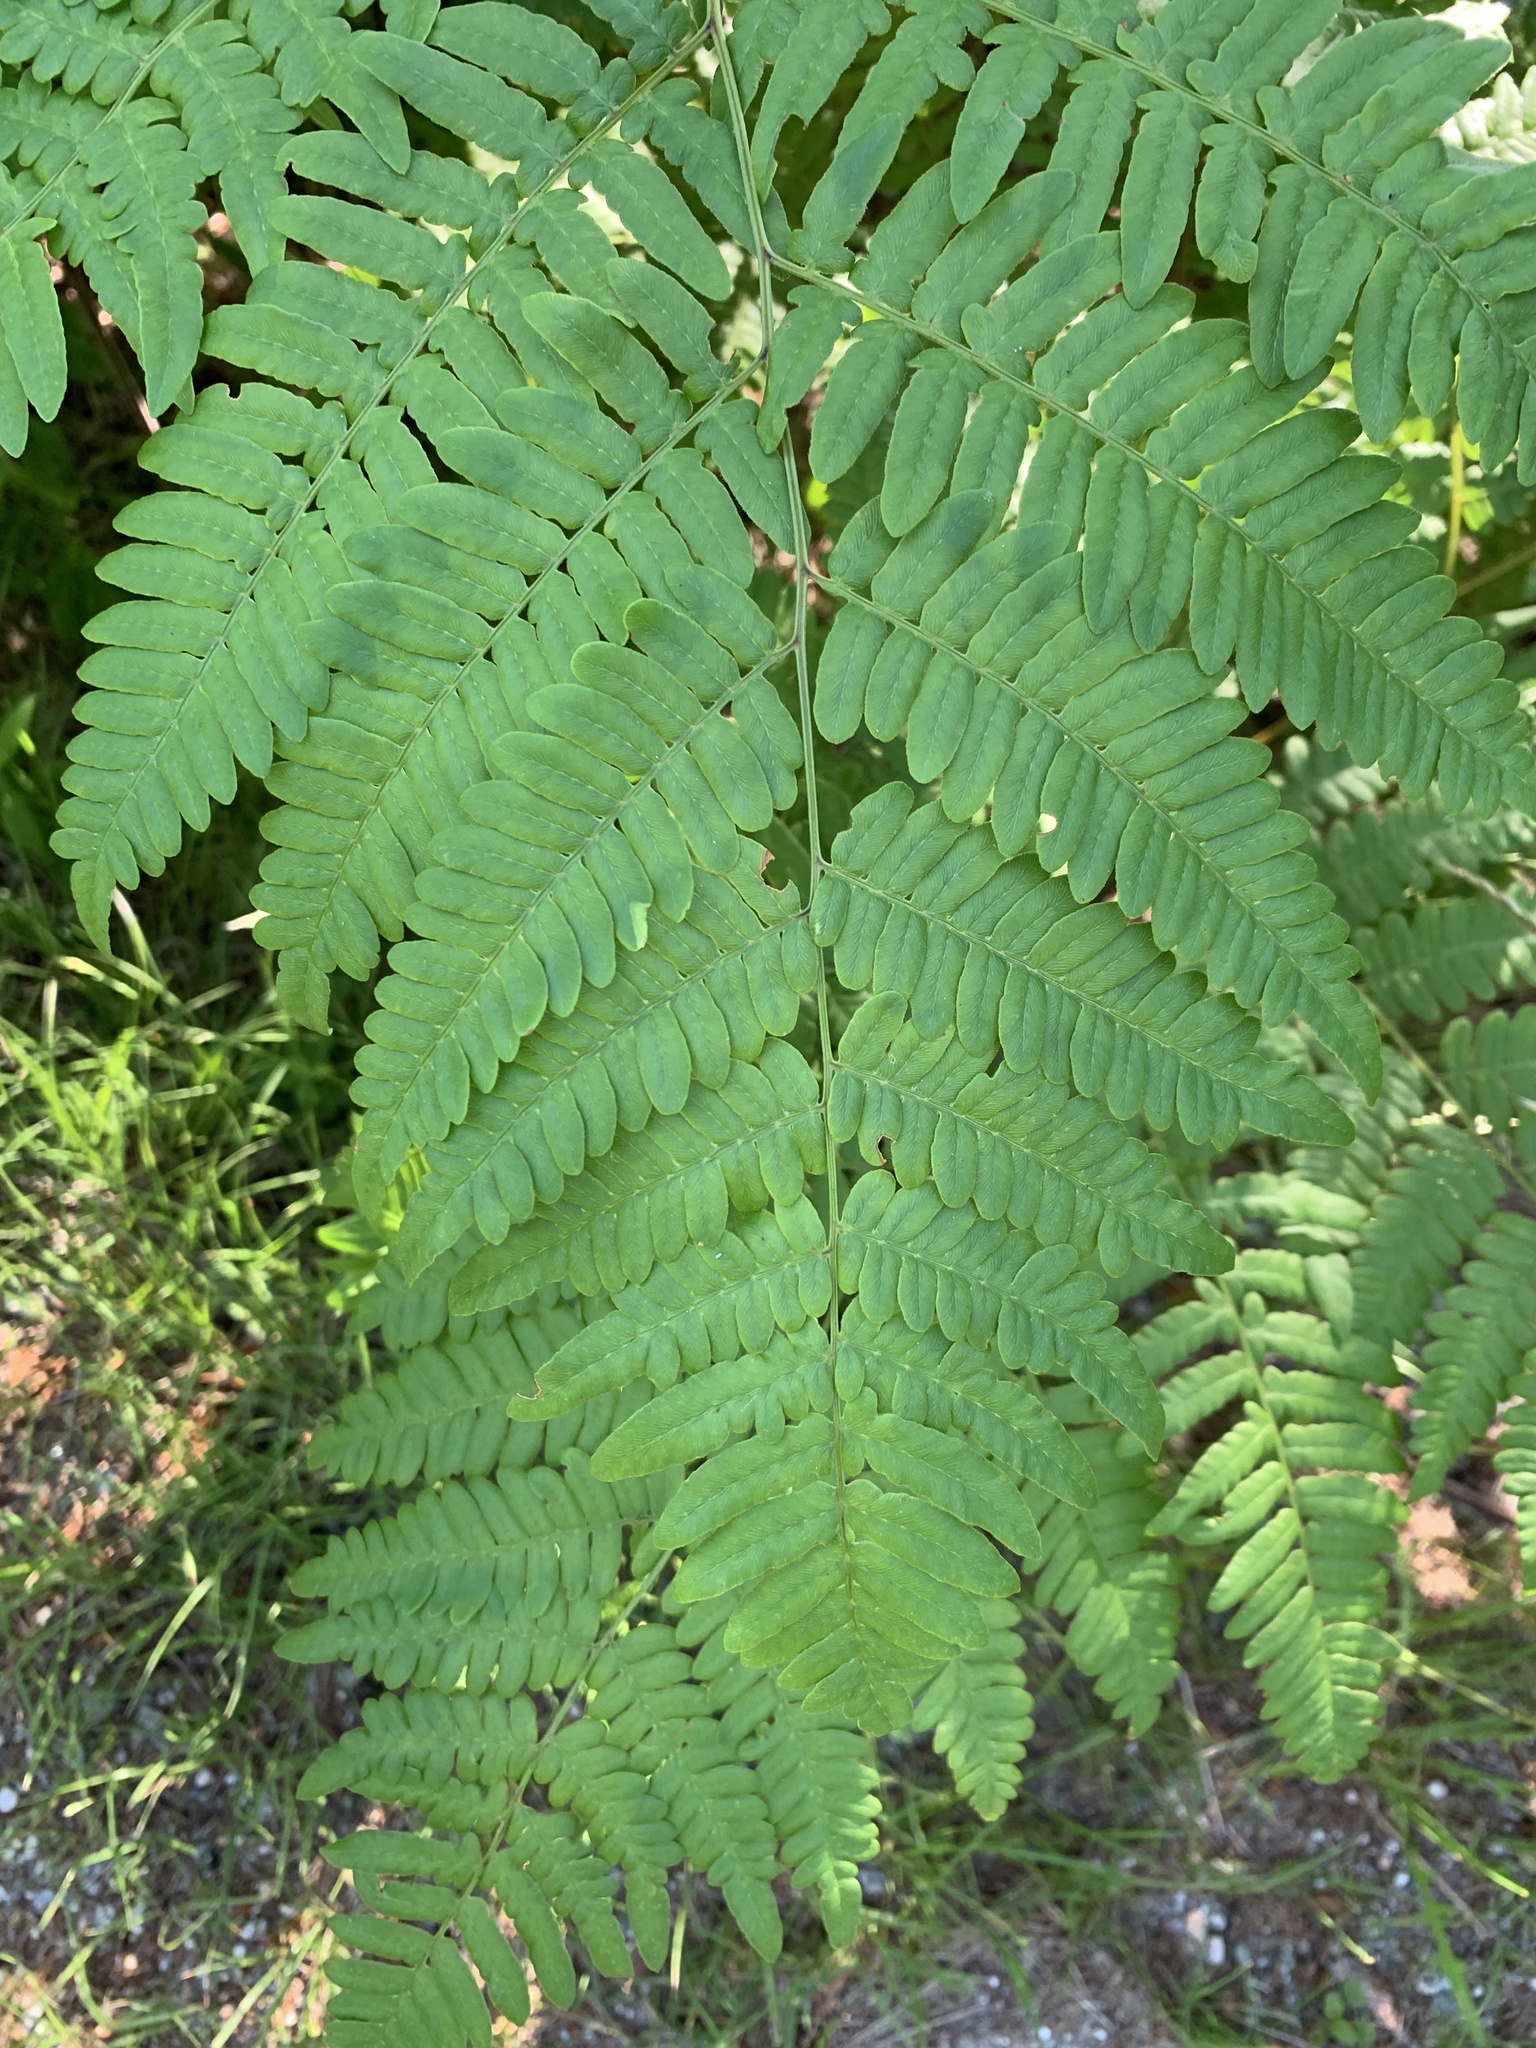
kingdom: Plantae
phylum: Tracheophyta
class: Polypodiopsida
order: Polypodiales
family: Dennstaedtiaceae
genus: Pteridium
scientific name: Pteridium aquilinum
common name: Bracken
